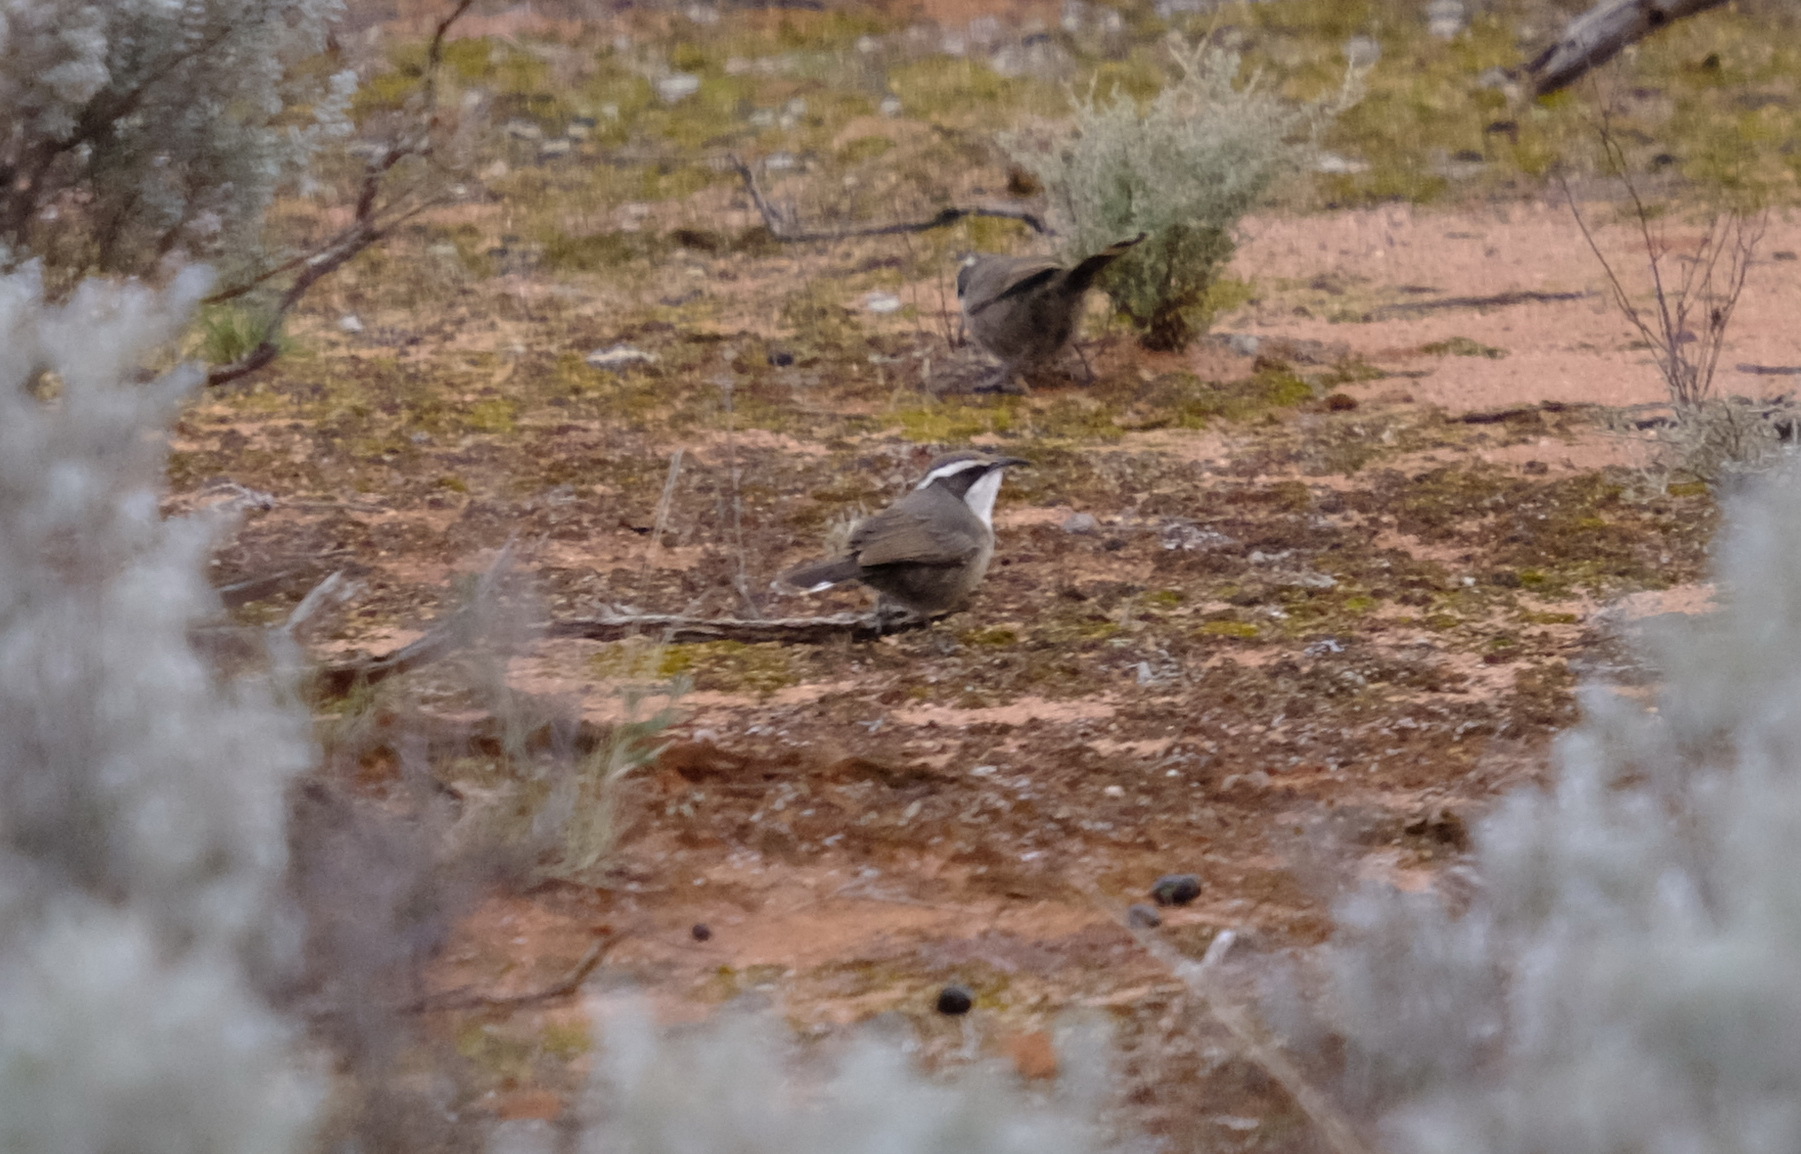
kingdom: Animalia
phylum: Chordata
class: Aves
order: Passeriformes
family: Pomatostomidae
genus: Pomatostomus
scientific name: Pomatostomus superciliosus
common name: White-browed babbler
